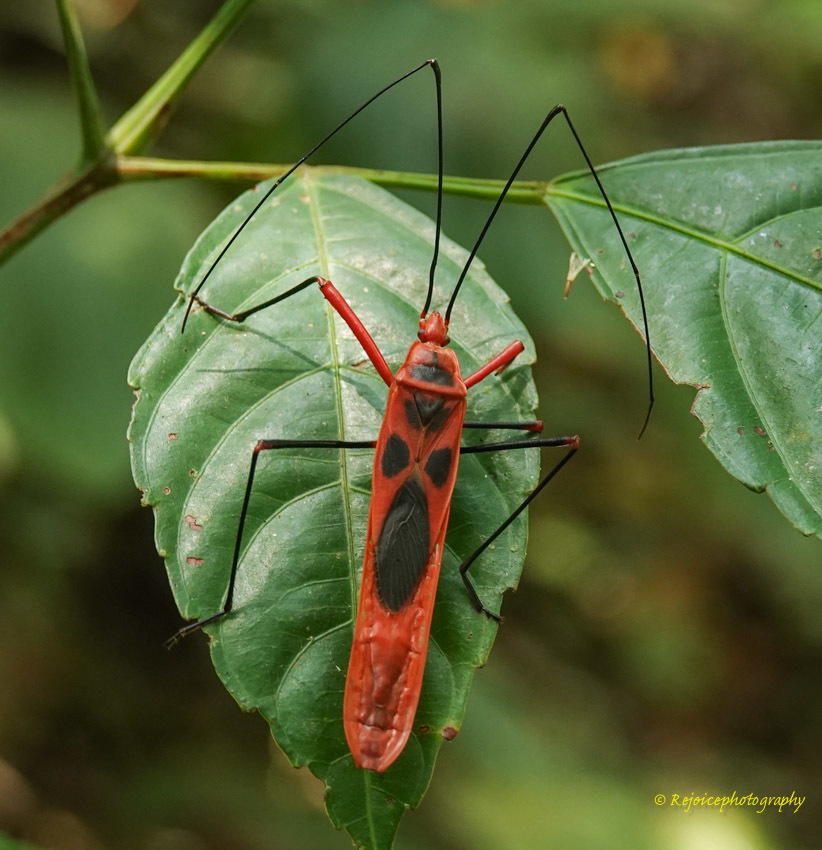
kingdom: Animalia
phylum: Arthropoda
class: Insecta
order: Hemiptera
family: Largidae
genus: Macrocheraia
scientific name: Macrocheraia grandis
